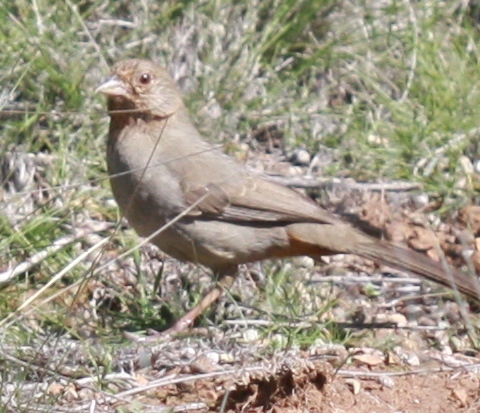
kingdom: Animalia
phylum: Chordata
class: Aves
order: Passeriformes
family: Passerellidae
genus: Melozone
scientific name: Melozone crissalis
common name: California towhee
